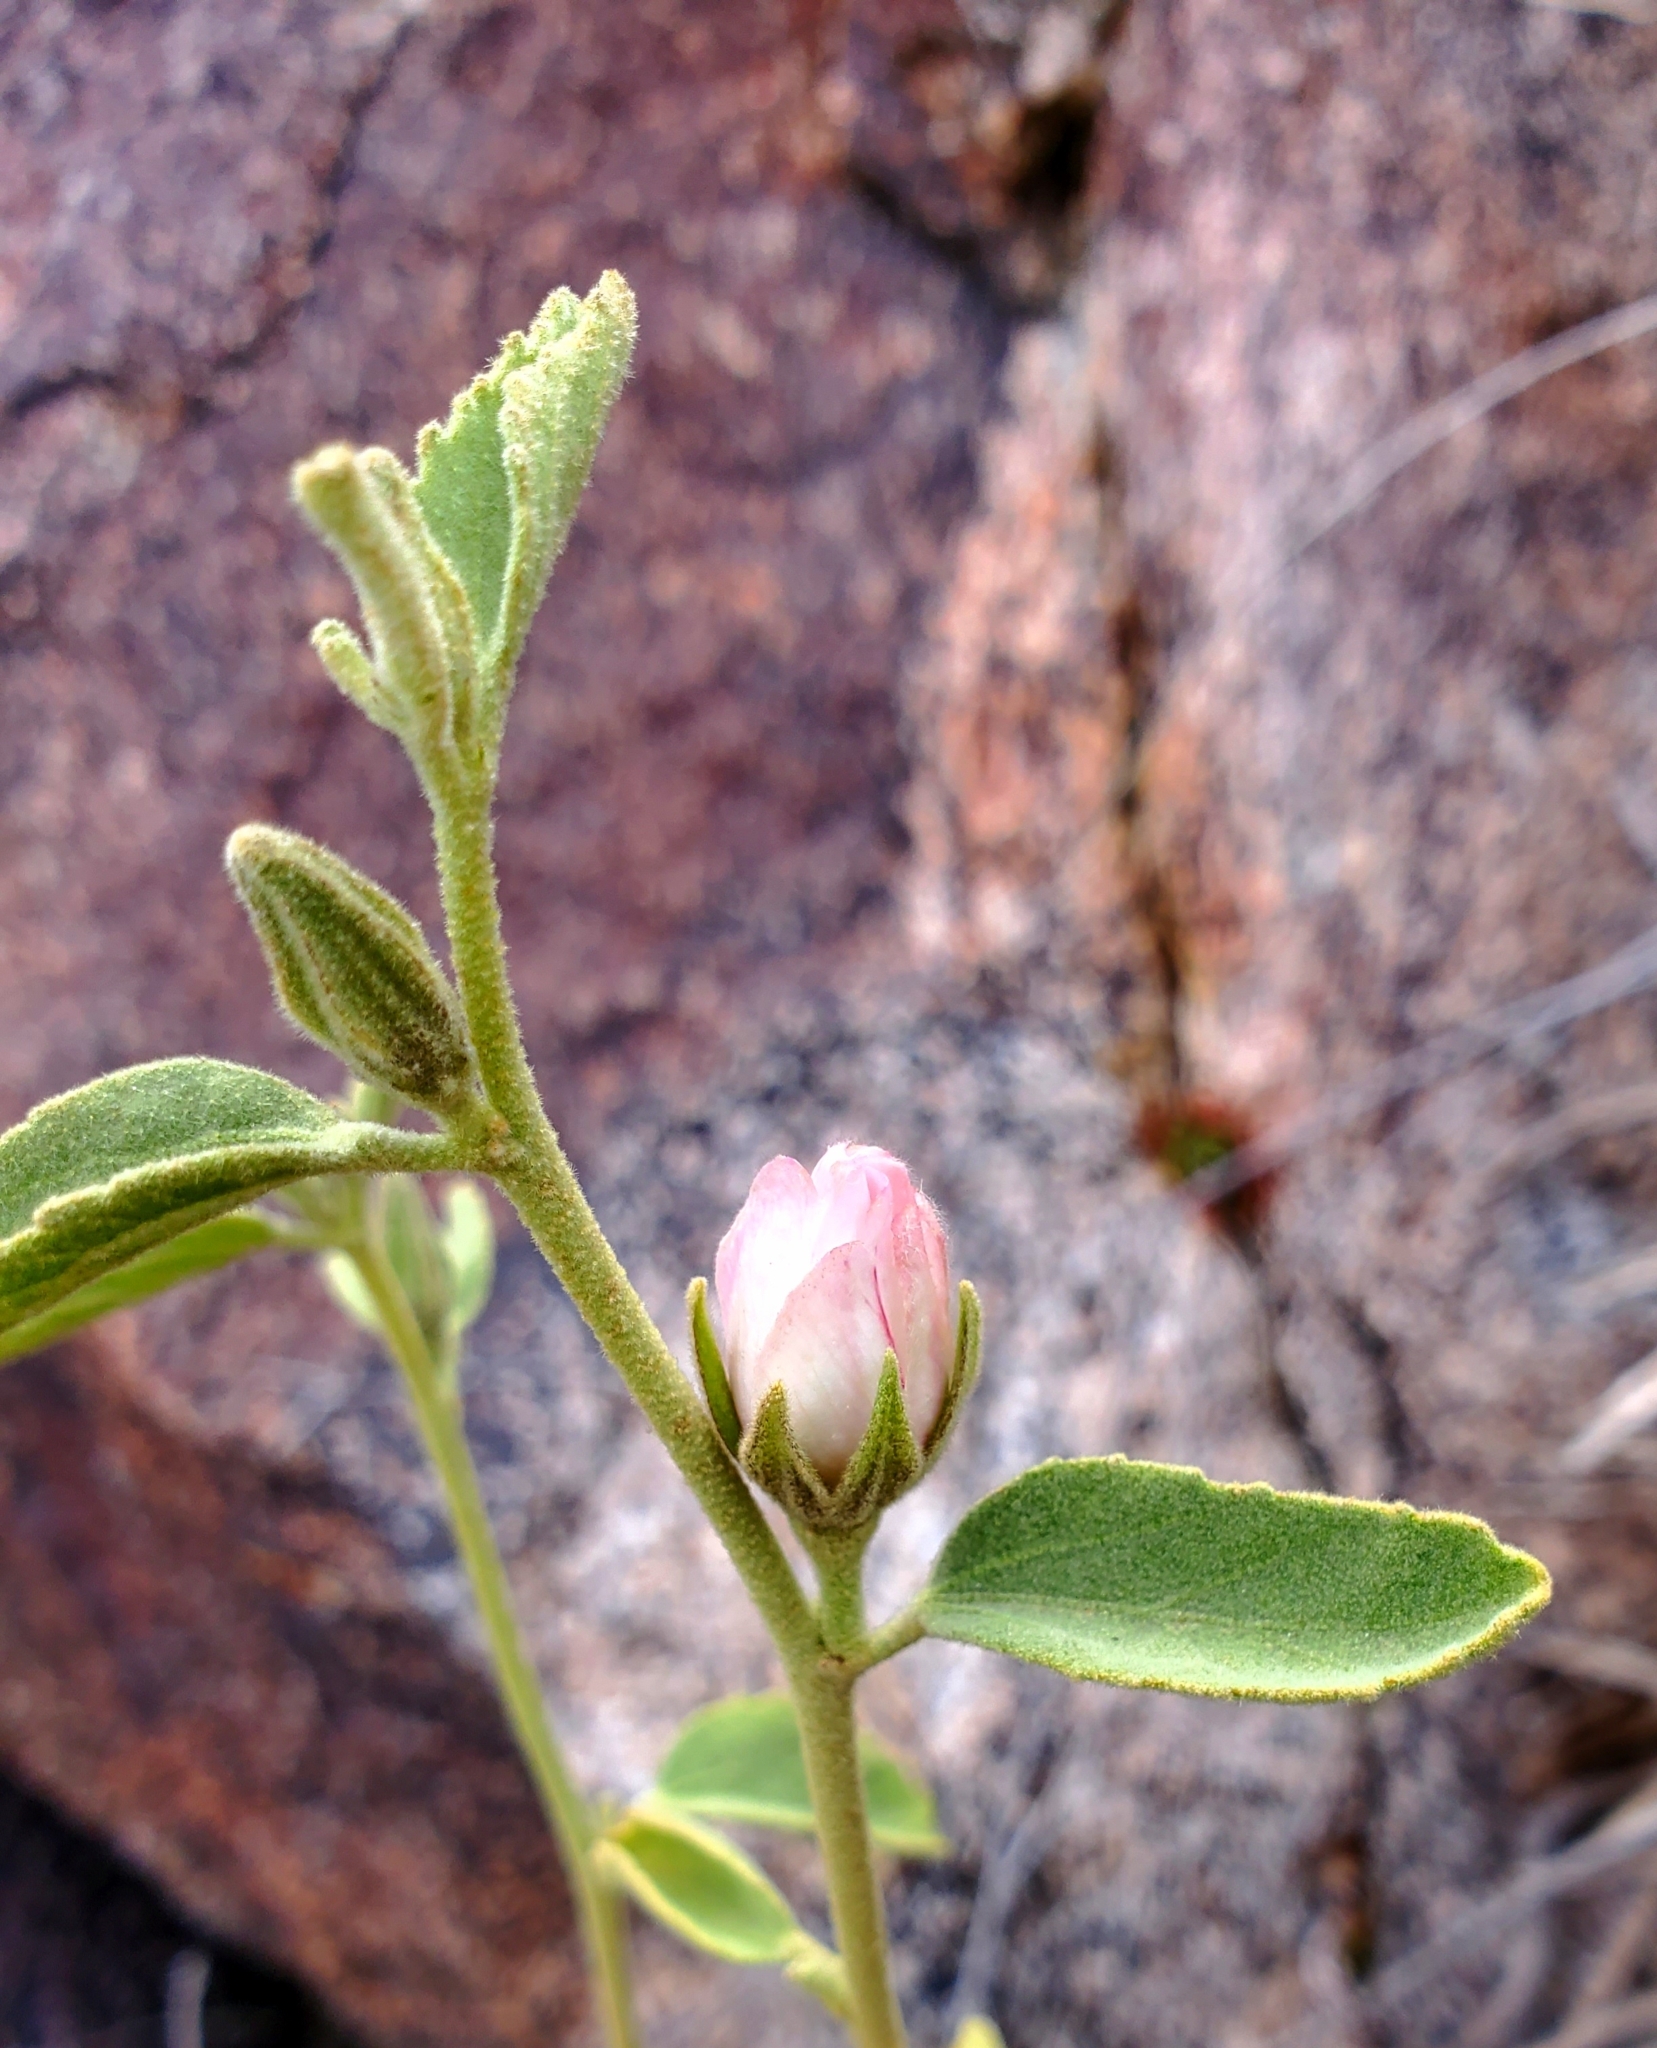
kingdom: Plantae
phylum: Tracheophyta
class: Magnoliopsida
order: Malvales
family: Malvaceae
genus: Hibiscus
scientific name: Hibiscus denudatus
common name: Paleface
